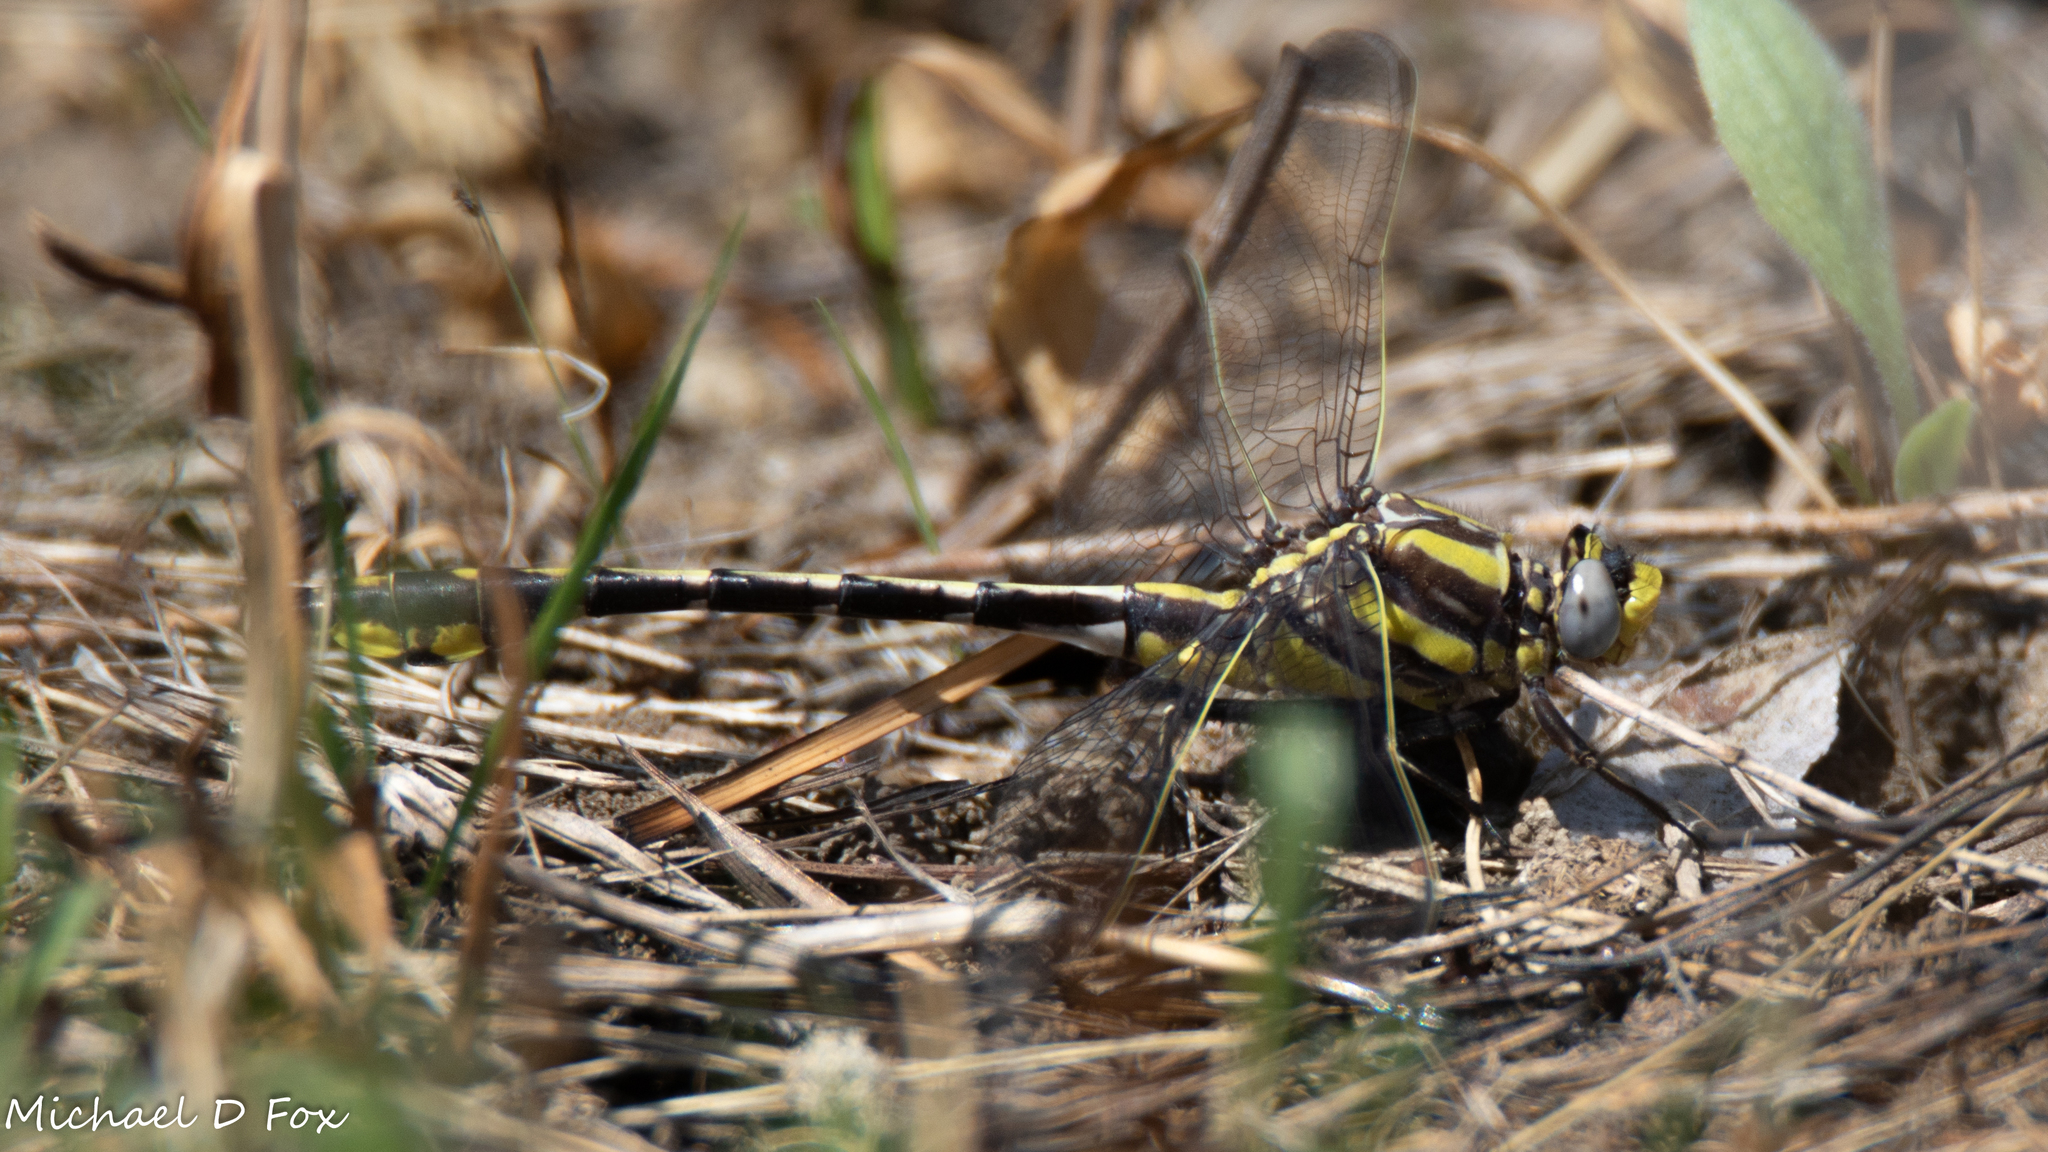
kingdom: Animalia
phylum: Arthropoda
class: Insecta
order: Odonata
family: Gomphidae
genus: Gomphurus
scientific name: Gomphurus externus
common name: Plains clubtail
